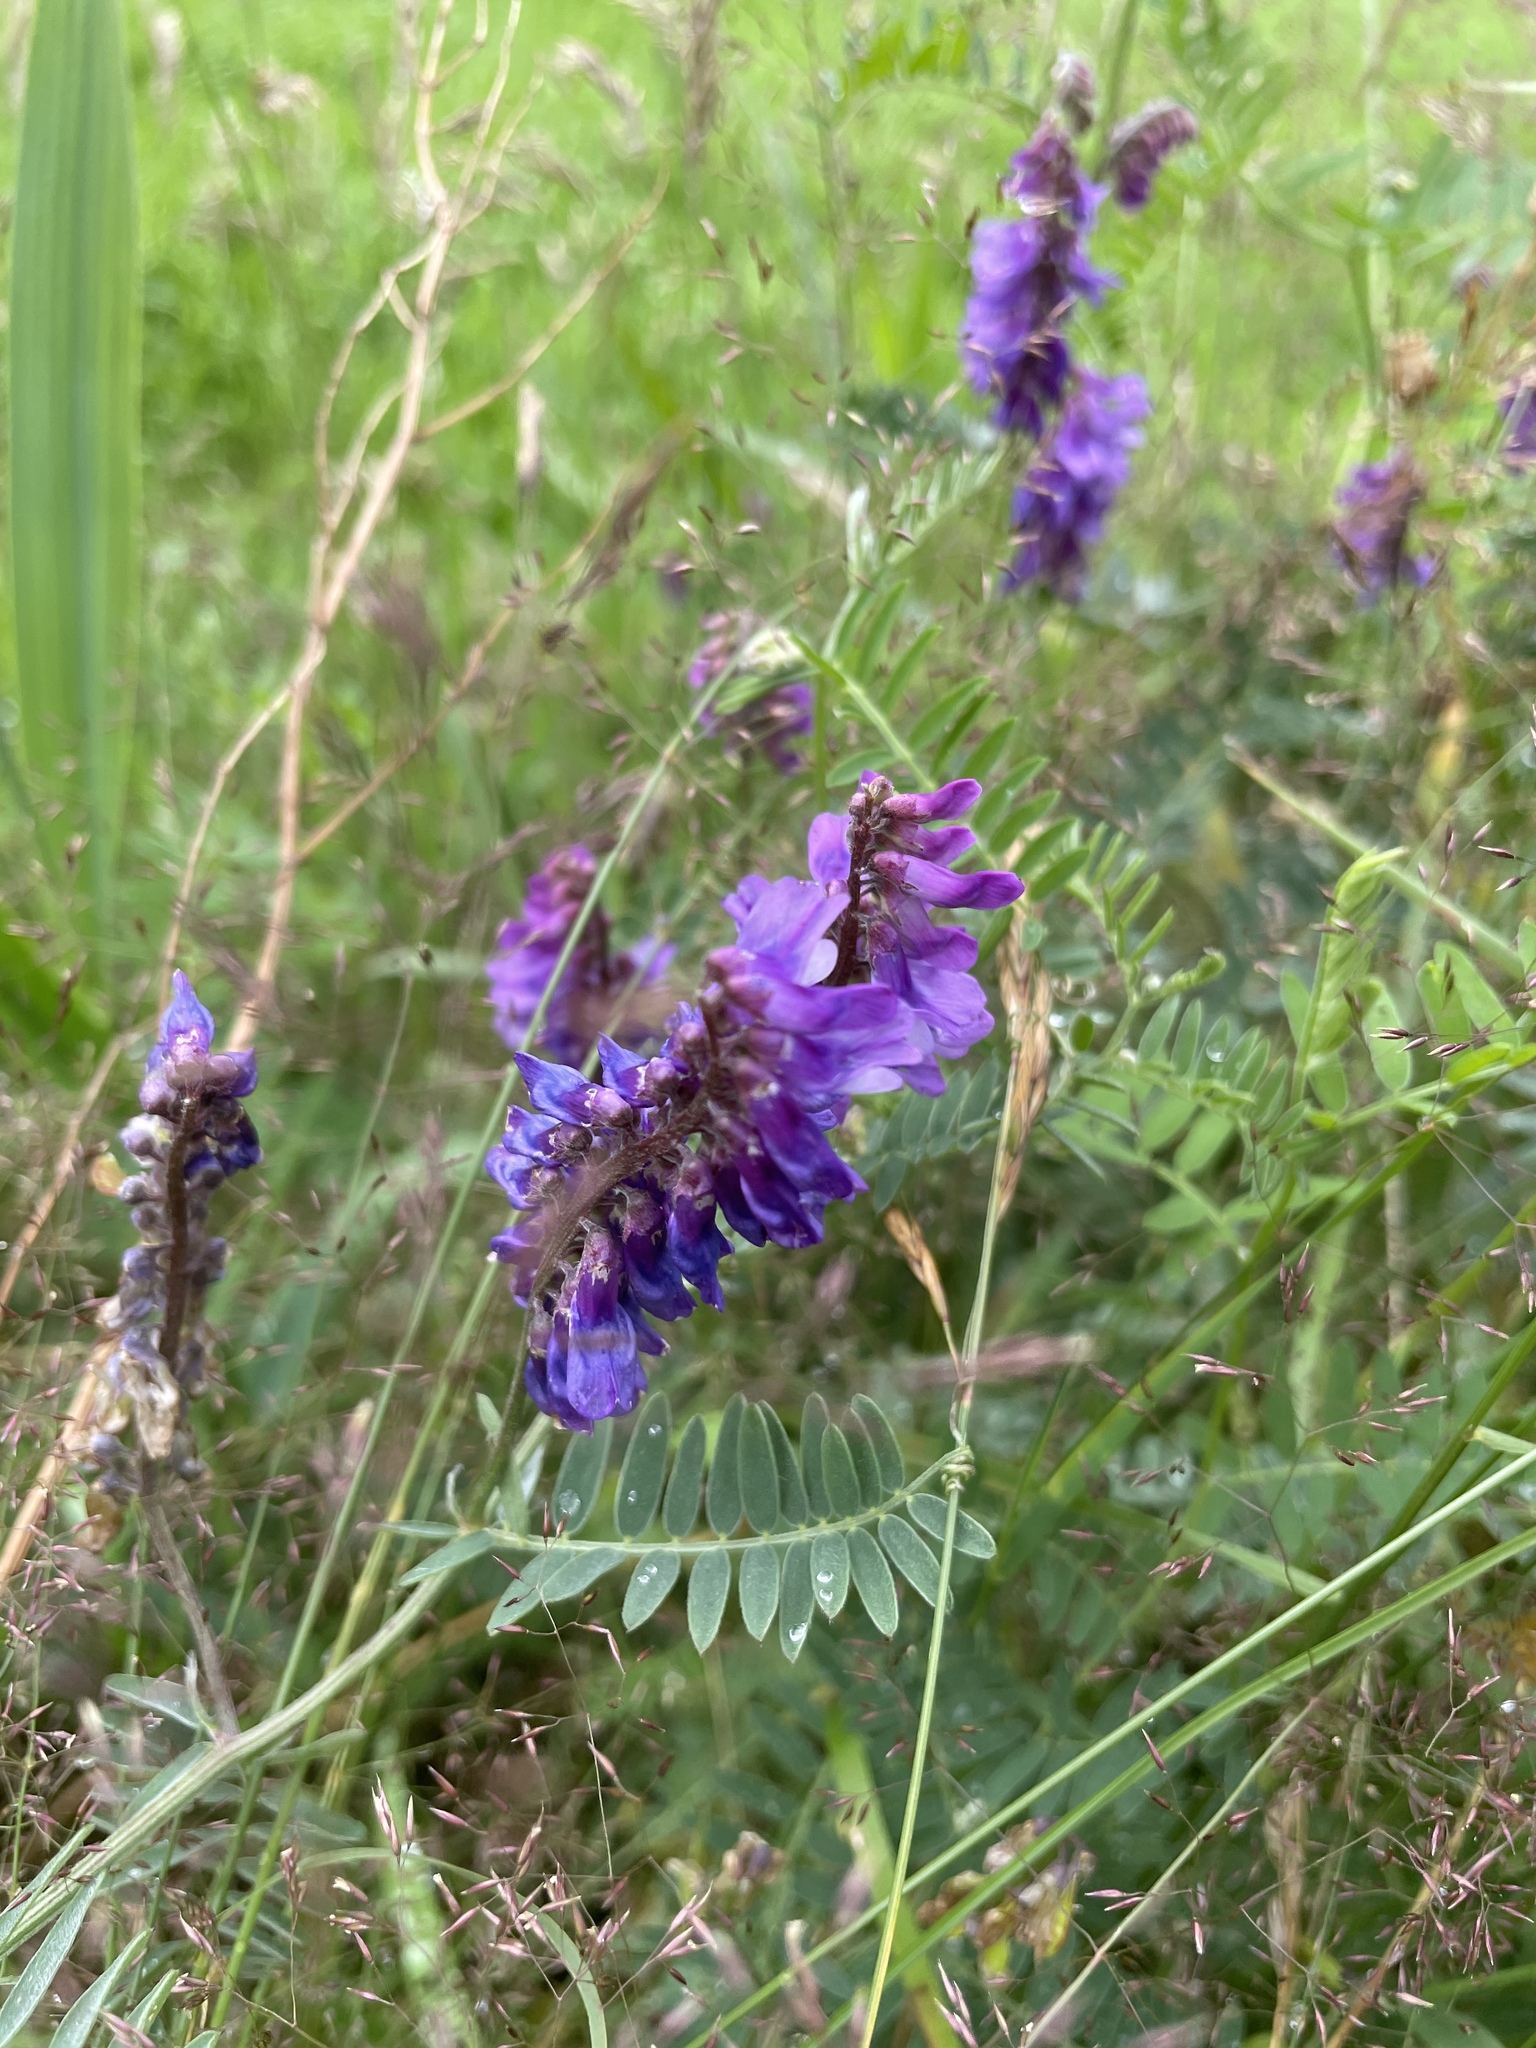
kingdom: Plantae
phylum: Tracheophyta
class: Magnoliopsida
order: Fabales
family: Fabaceae
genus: Vicia
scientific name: Vicia cracca
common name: Bird vetch
